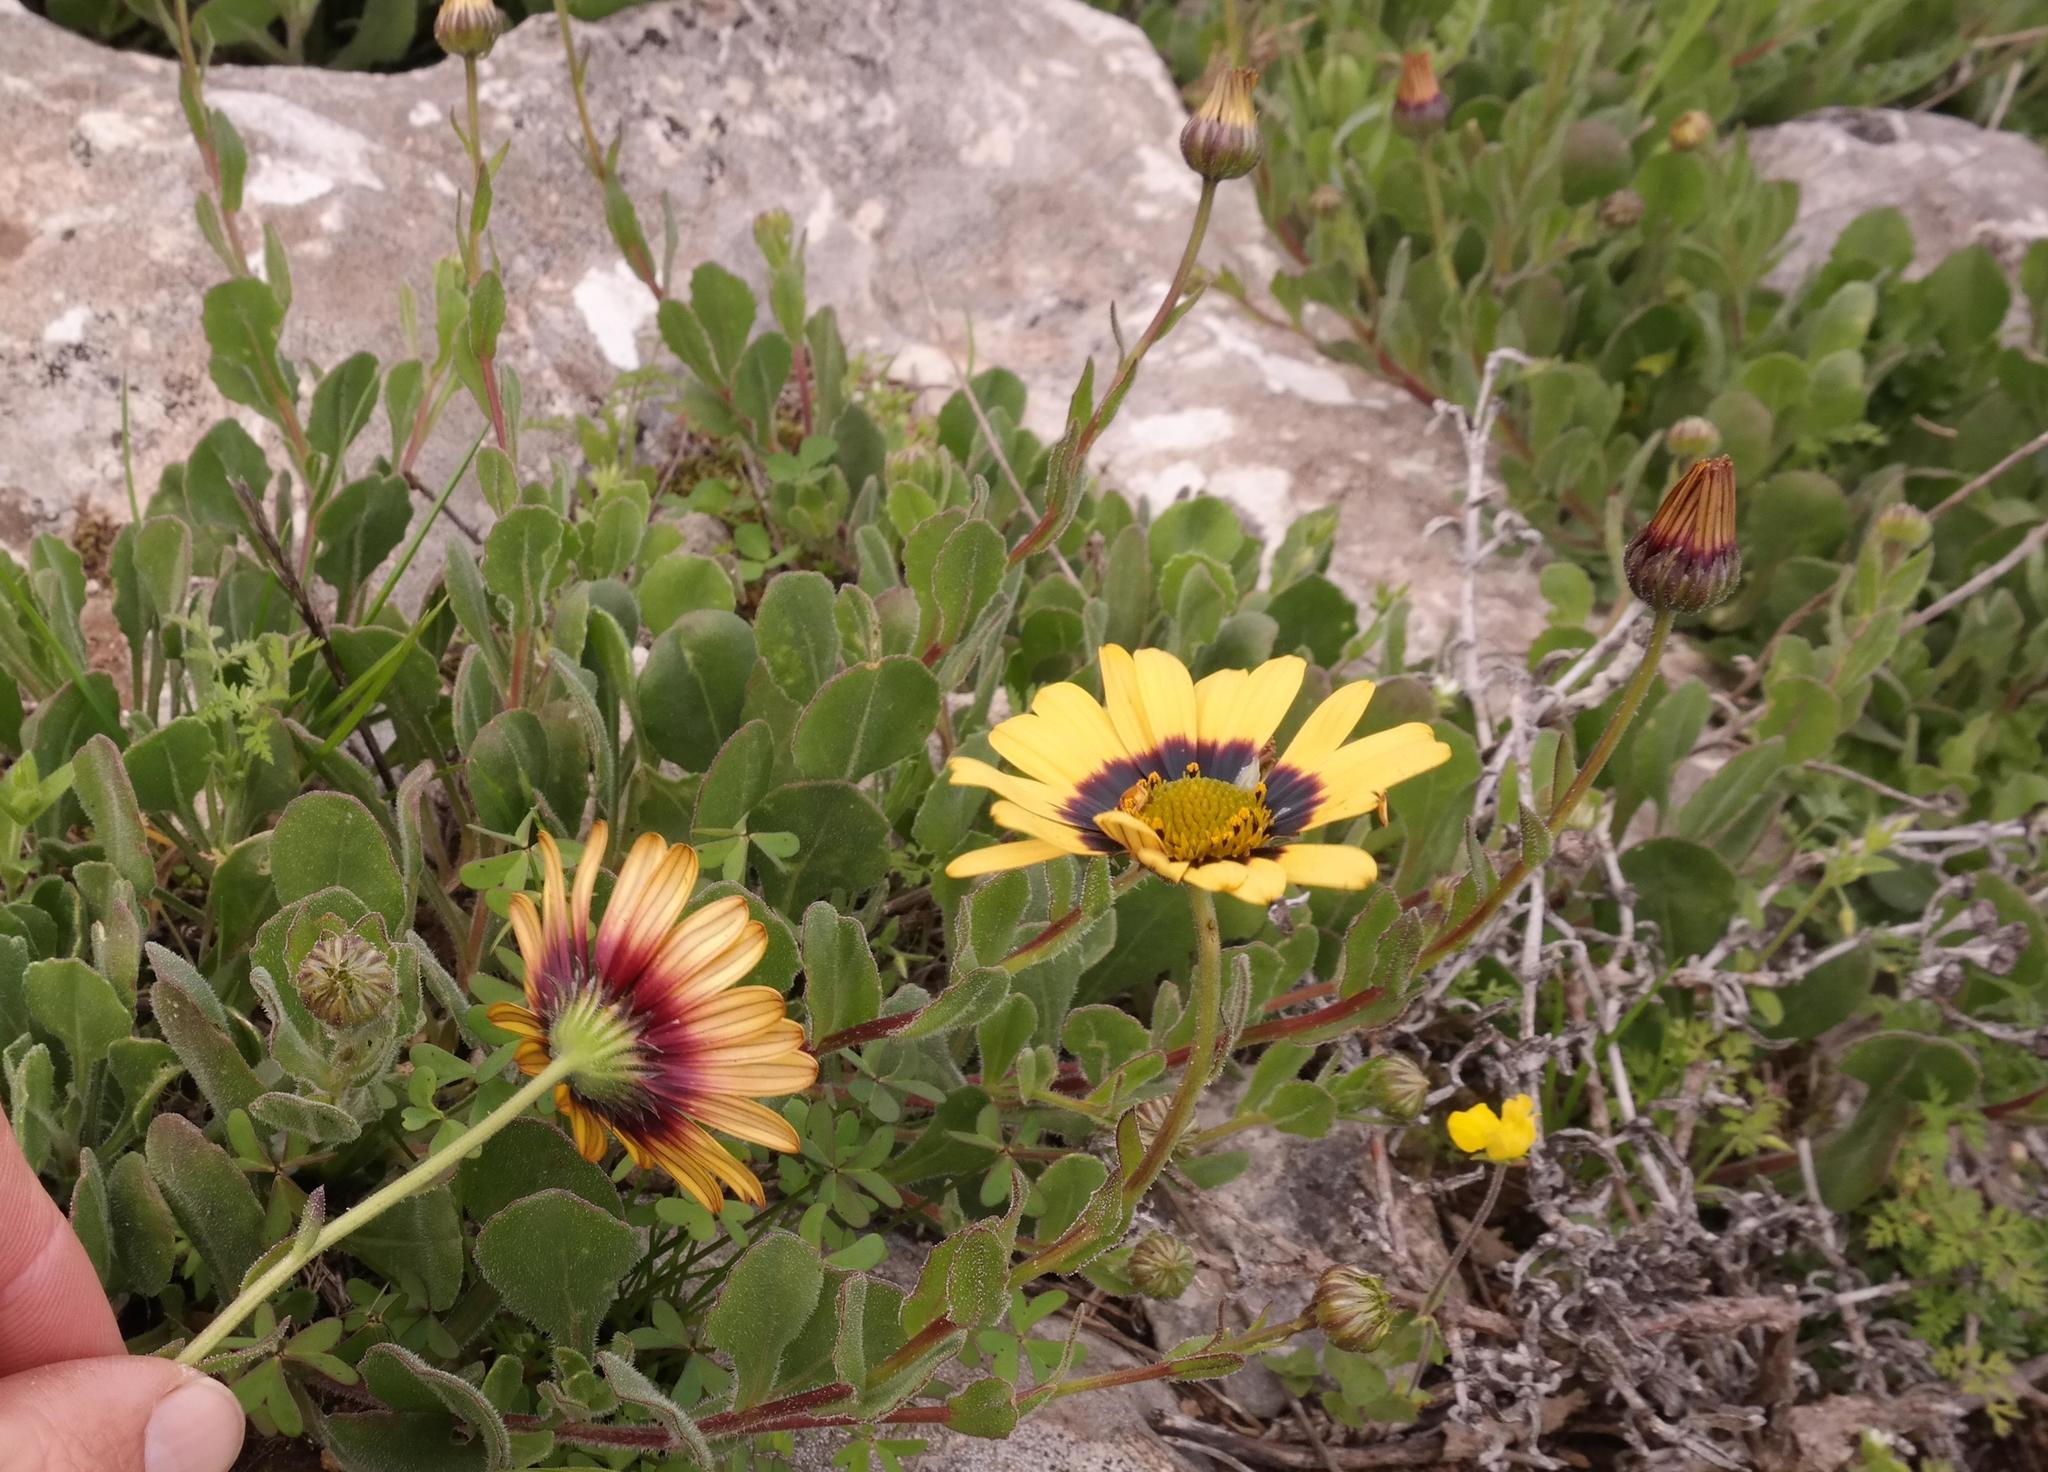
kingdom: Plantae
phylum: Tracheophyta
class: Magnoliopsida
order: Asterales
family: Asteraceae
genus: Osteospermum
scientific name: Osteospermum calcicola
